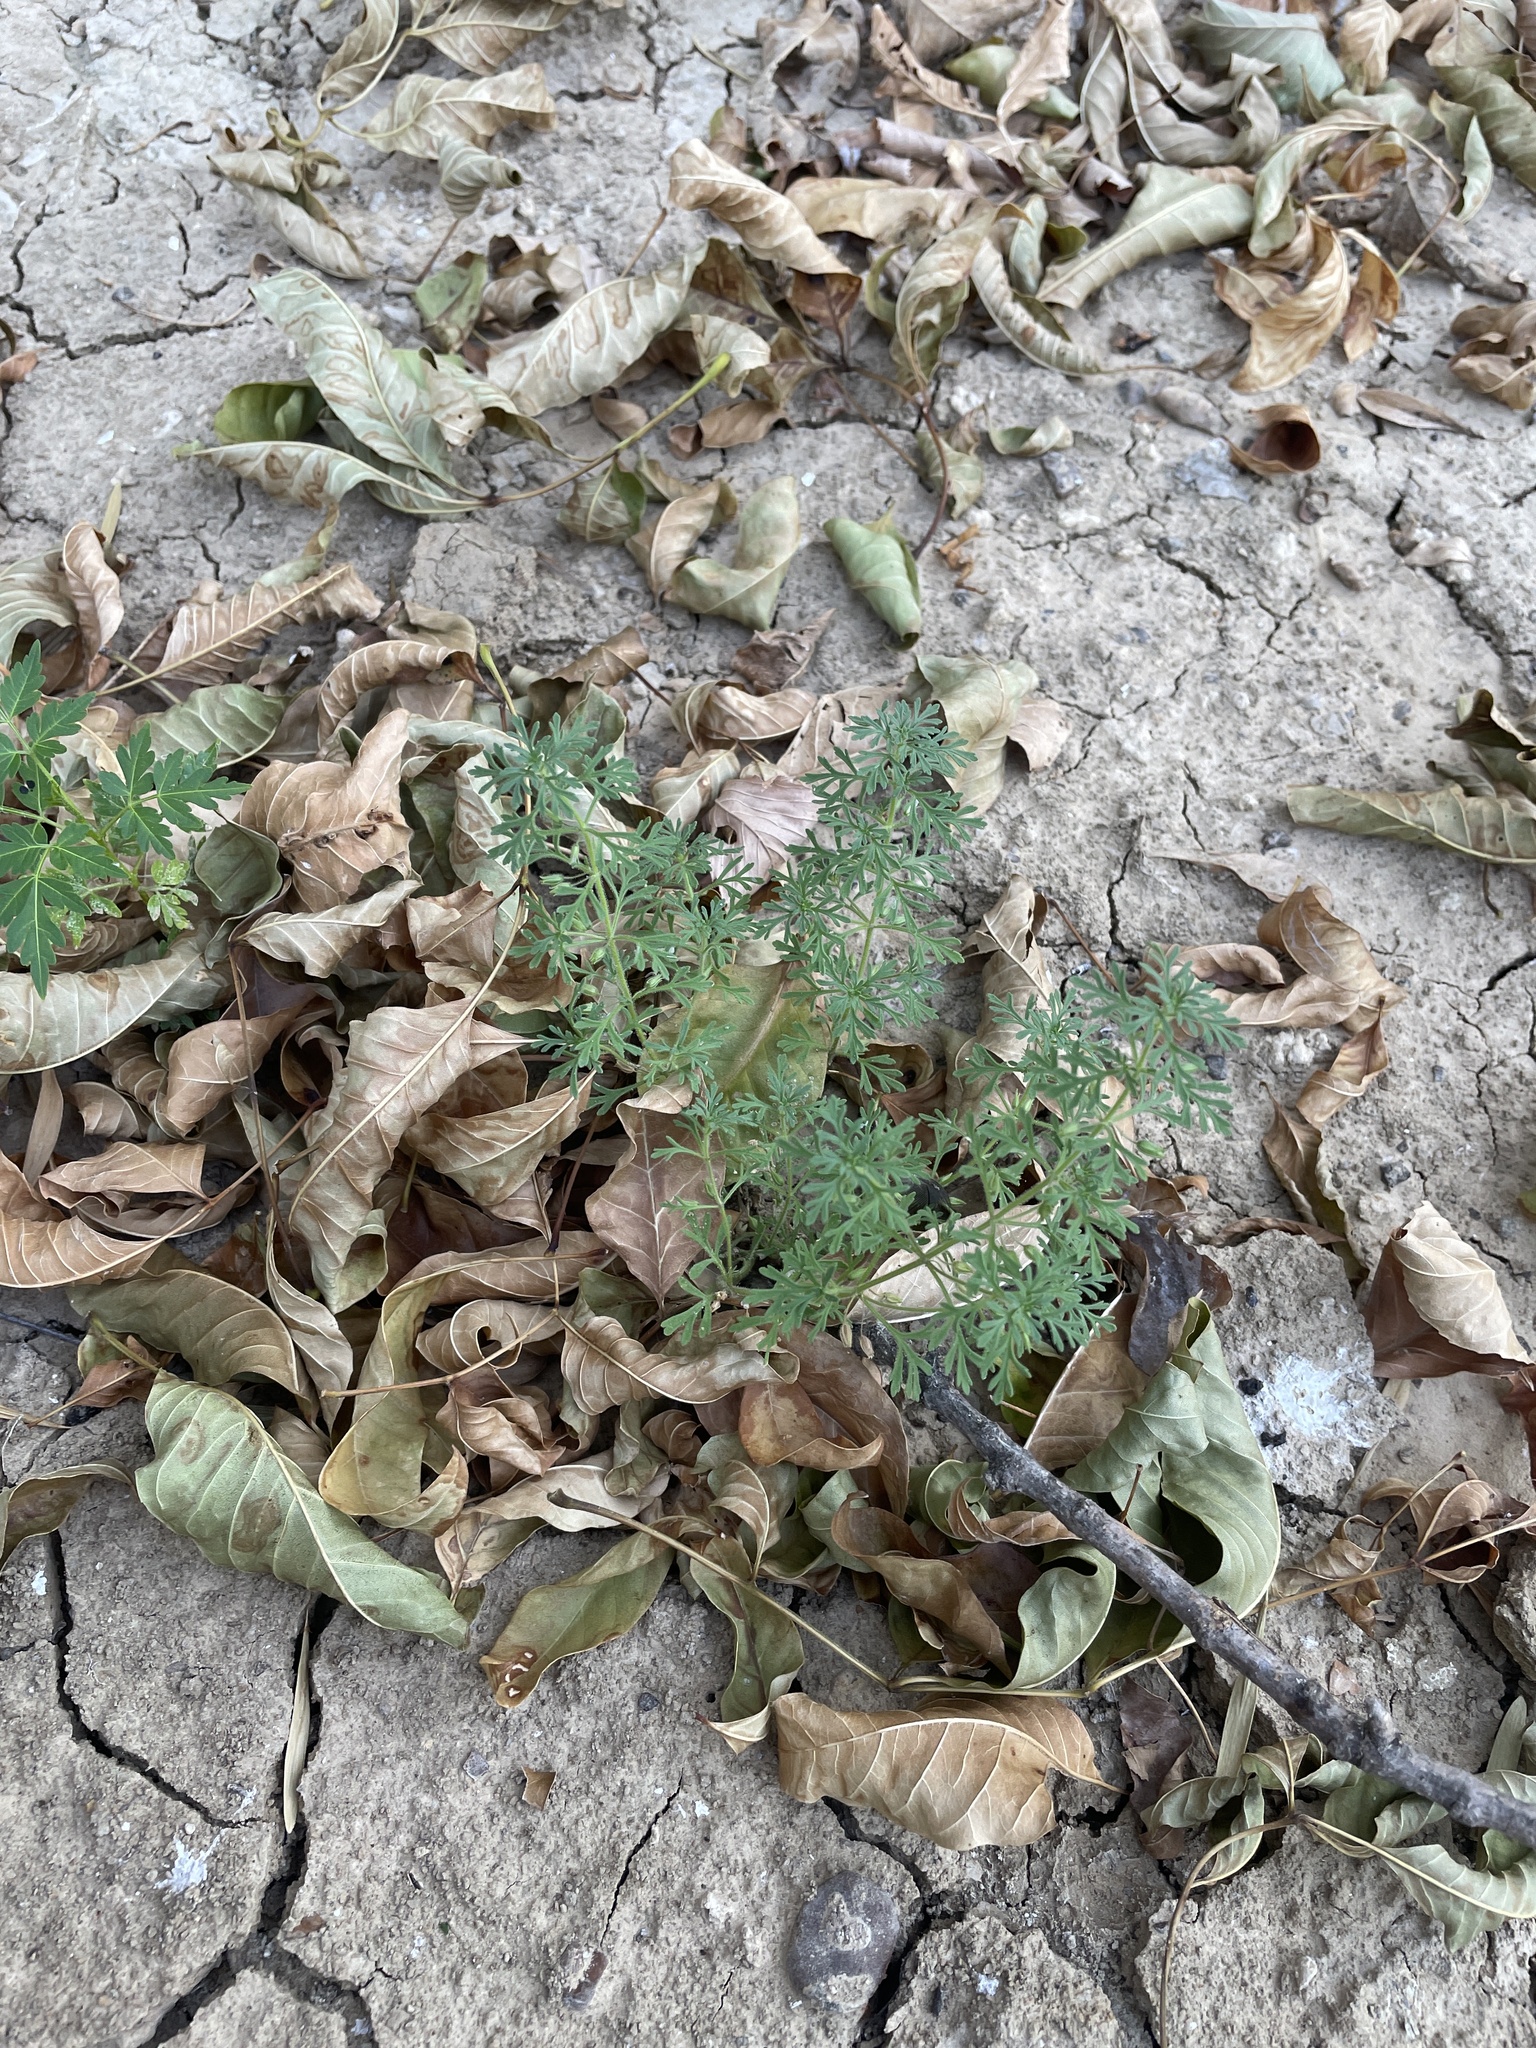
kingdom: Plantae
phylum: Tracheophyta
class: Magnoliopsida
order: Lamiales
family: Plantaginaceae
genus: Leucospora
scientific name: Leucospora multifida
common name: Narrow-leaf paleseed
